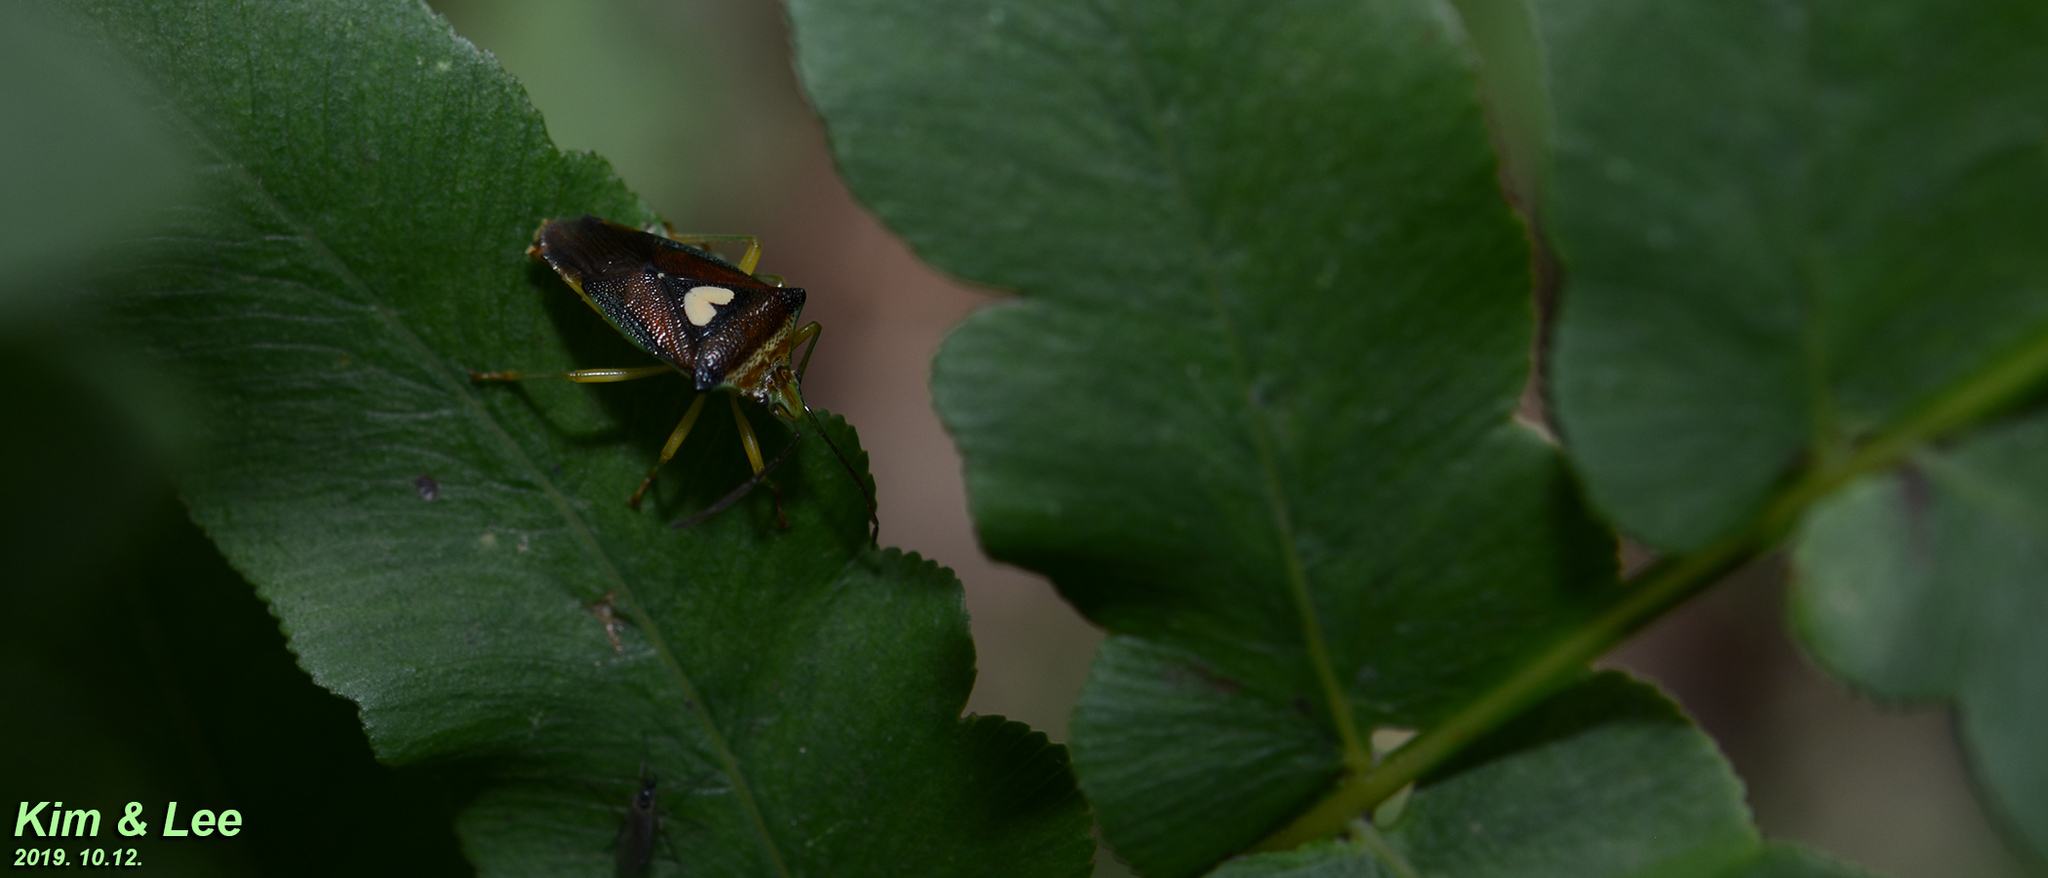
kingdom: Animalia
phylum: Arthropoda
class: Insecta
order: Hemiptera
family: Acanthosomatidae
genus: Sastragala
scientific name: Sastragala esakii
